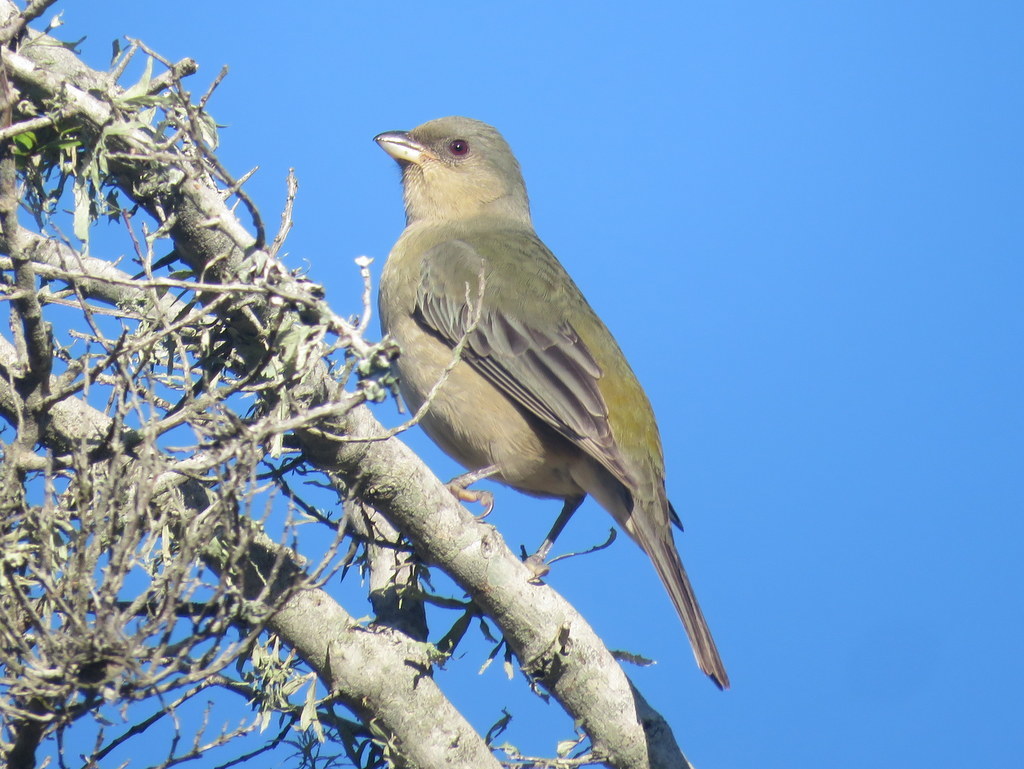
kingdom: Animalia
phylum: Chordata
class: Aves
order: Passeriformes
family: Thraupidae
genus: Rauenia
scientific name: Rauenia bonariensis
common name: Blue-and-yellow tanager
